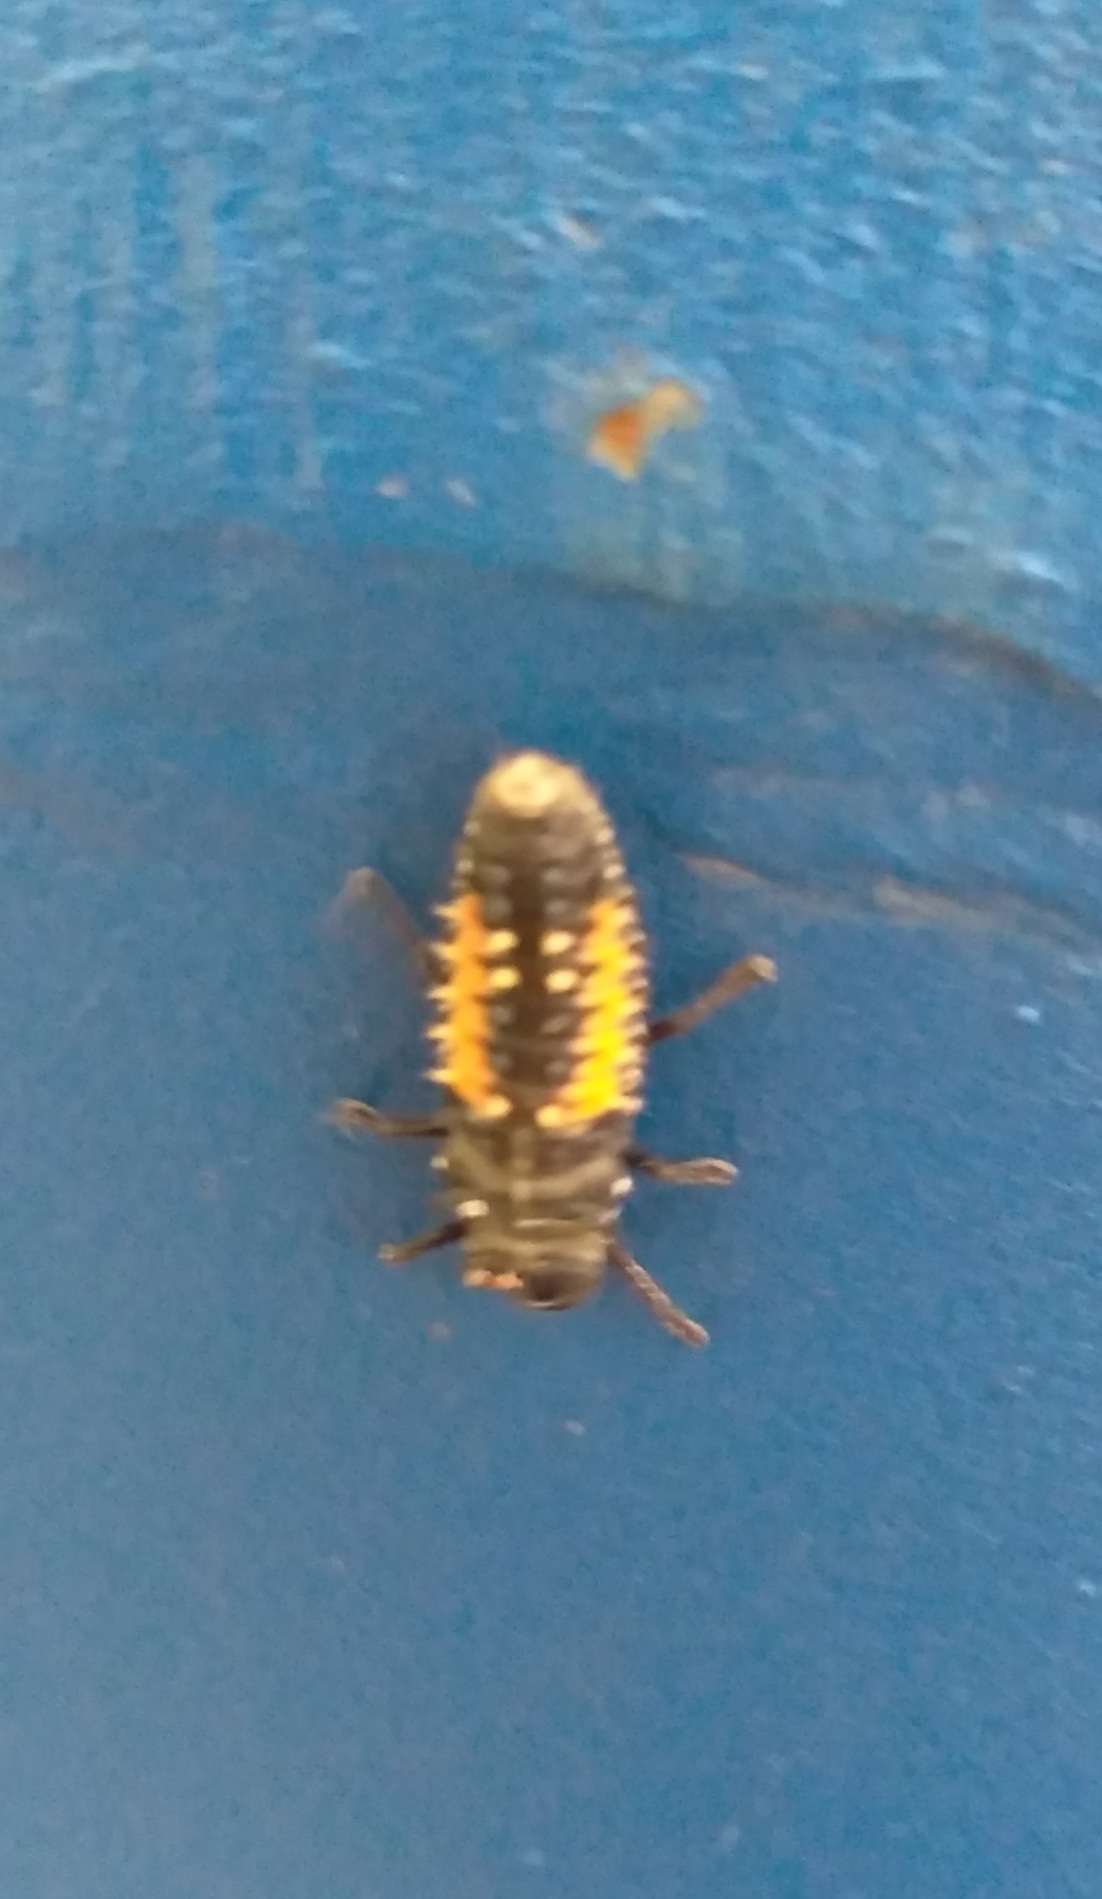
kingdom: Animalia
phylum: Arthropoda
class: Insecta
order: Coleoptera
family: Coccinellidae
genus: Harmonia
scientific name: Harmonia axyridis
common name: Harlequin ladybird
